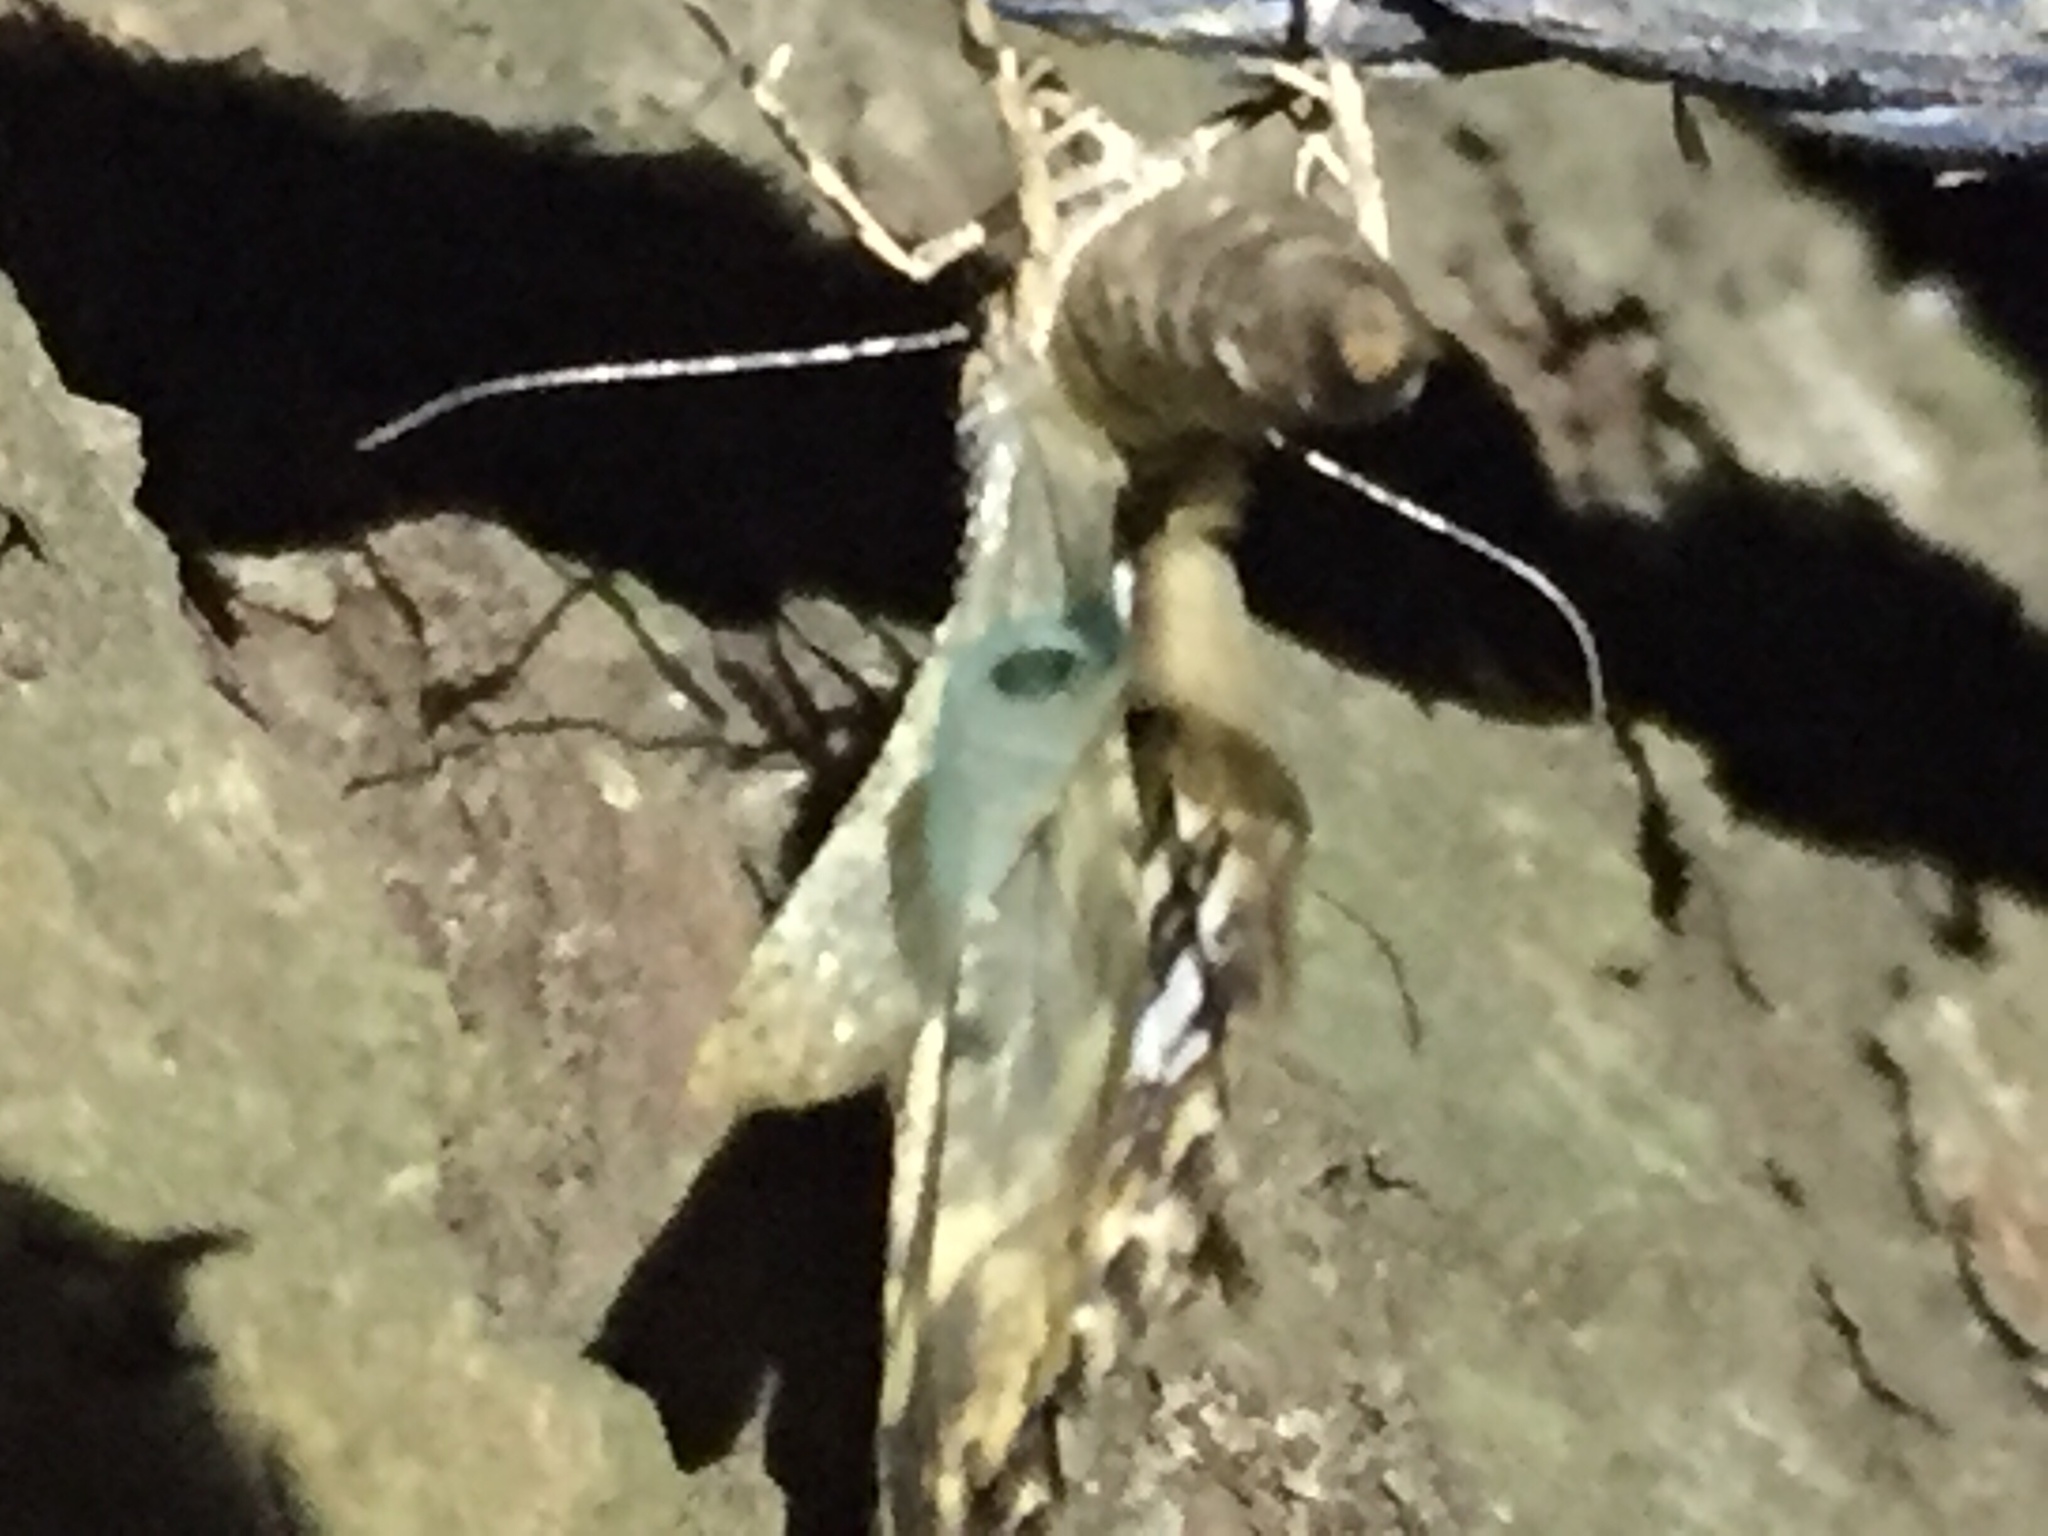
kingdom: Animalia
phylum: Arthropoda
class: Insecta
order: Lepidoptera
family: Geometridae
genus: Pseudocoremia
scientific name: Pseudocoremia leucelaea
